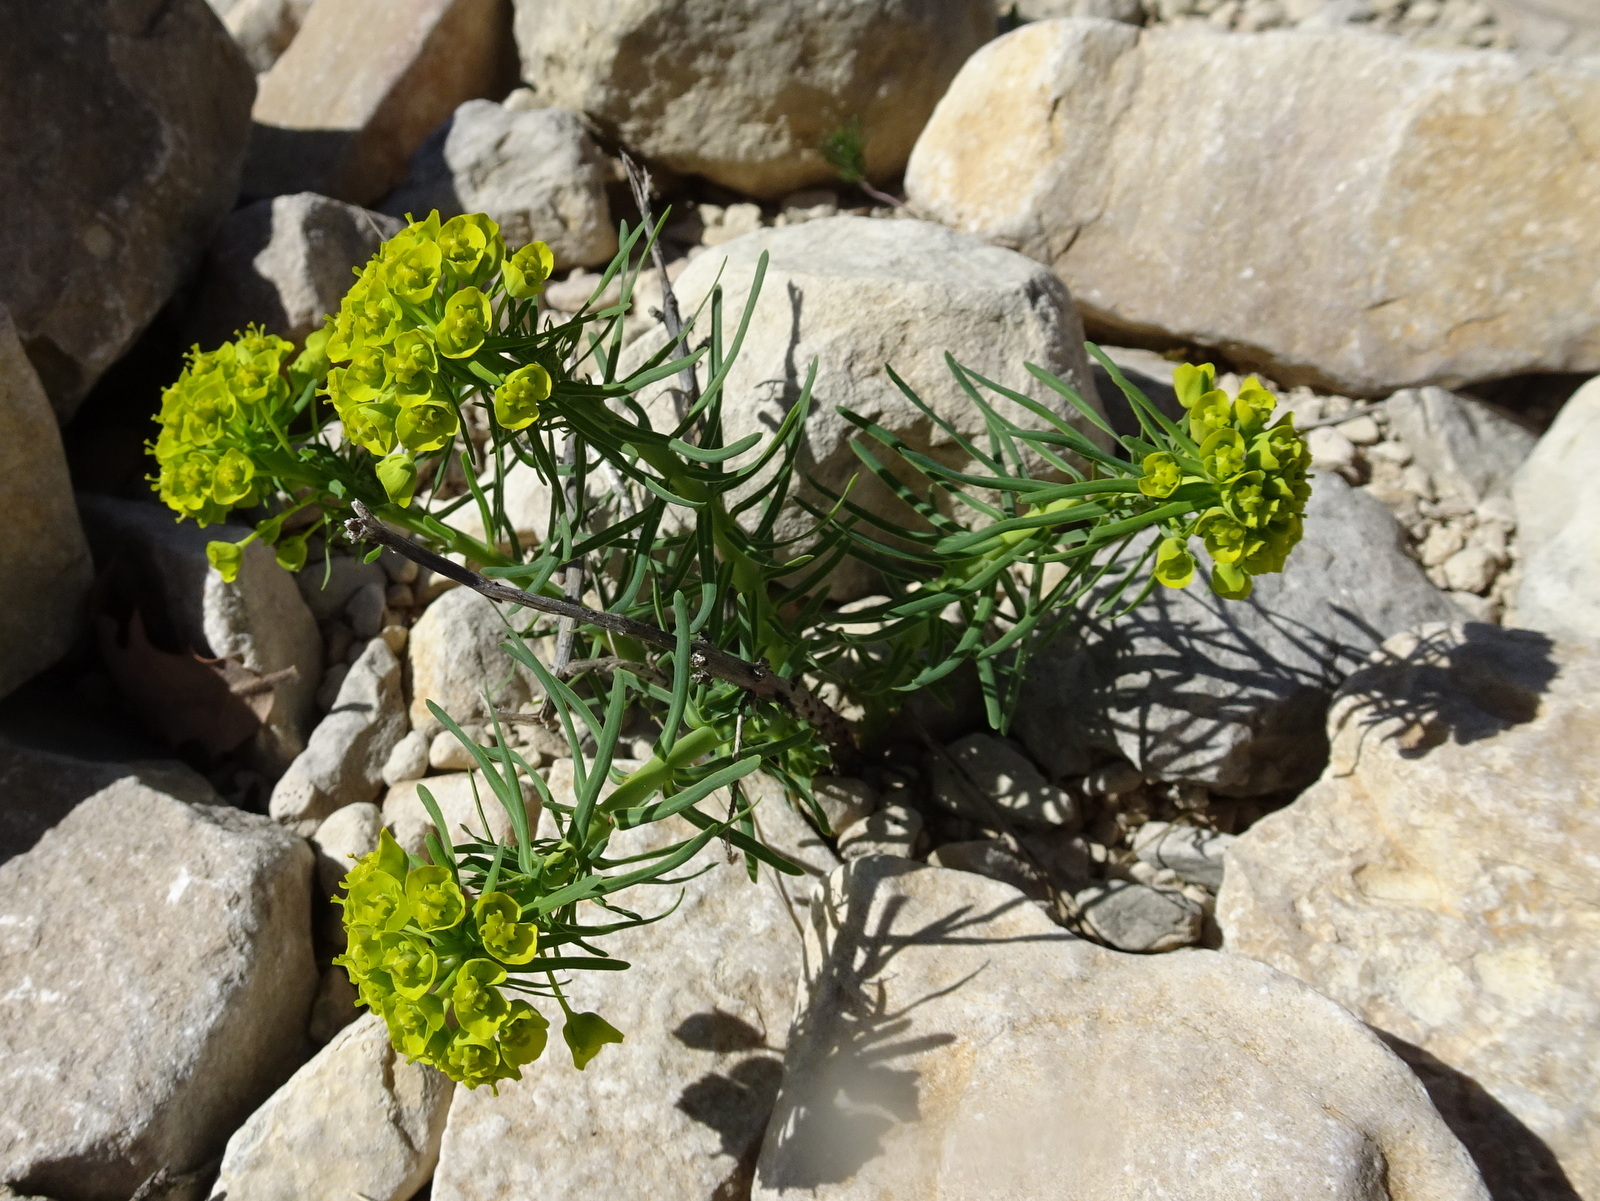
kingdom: Plantae
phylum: Tracheophyta
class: Magnoliopsida
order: Malpighiales
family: Euphorbiaceae
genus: Euphorbia
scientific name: Euphorbia cyparissias
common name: Cypress spurge
